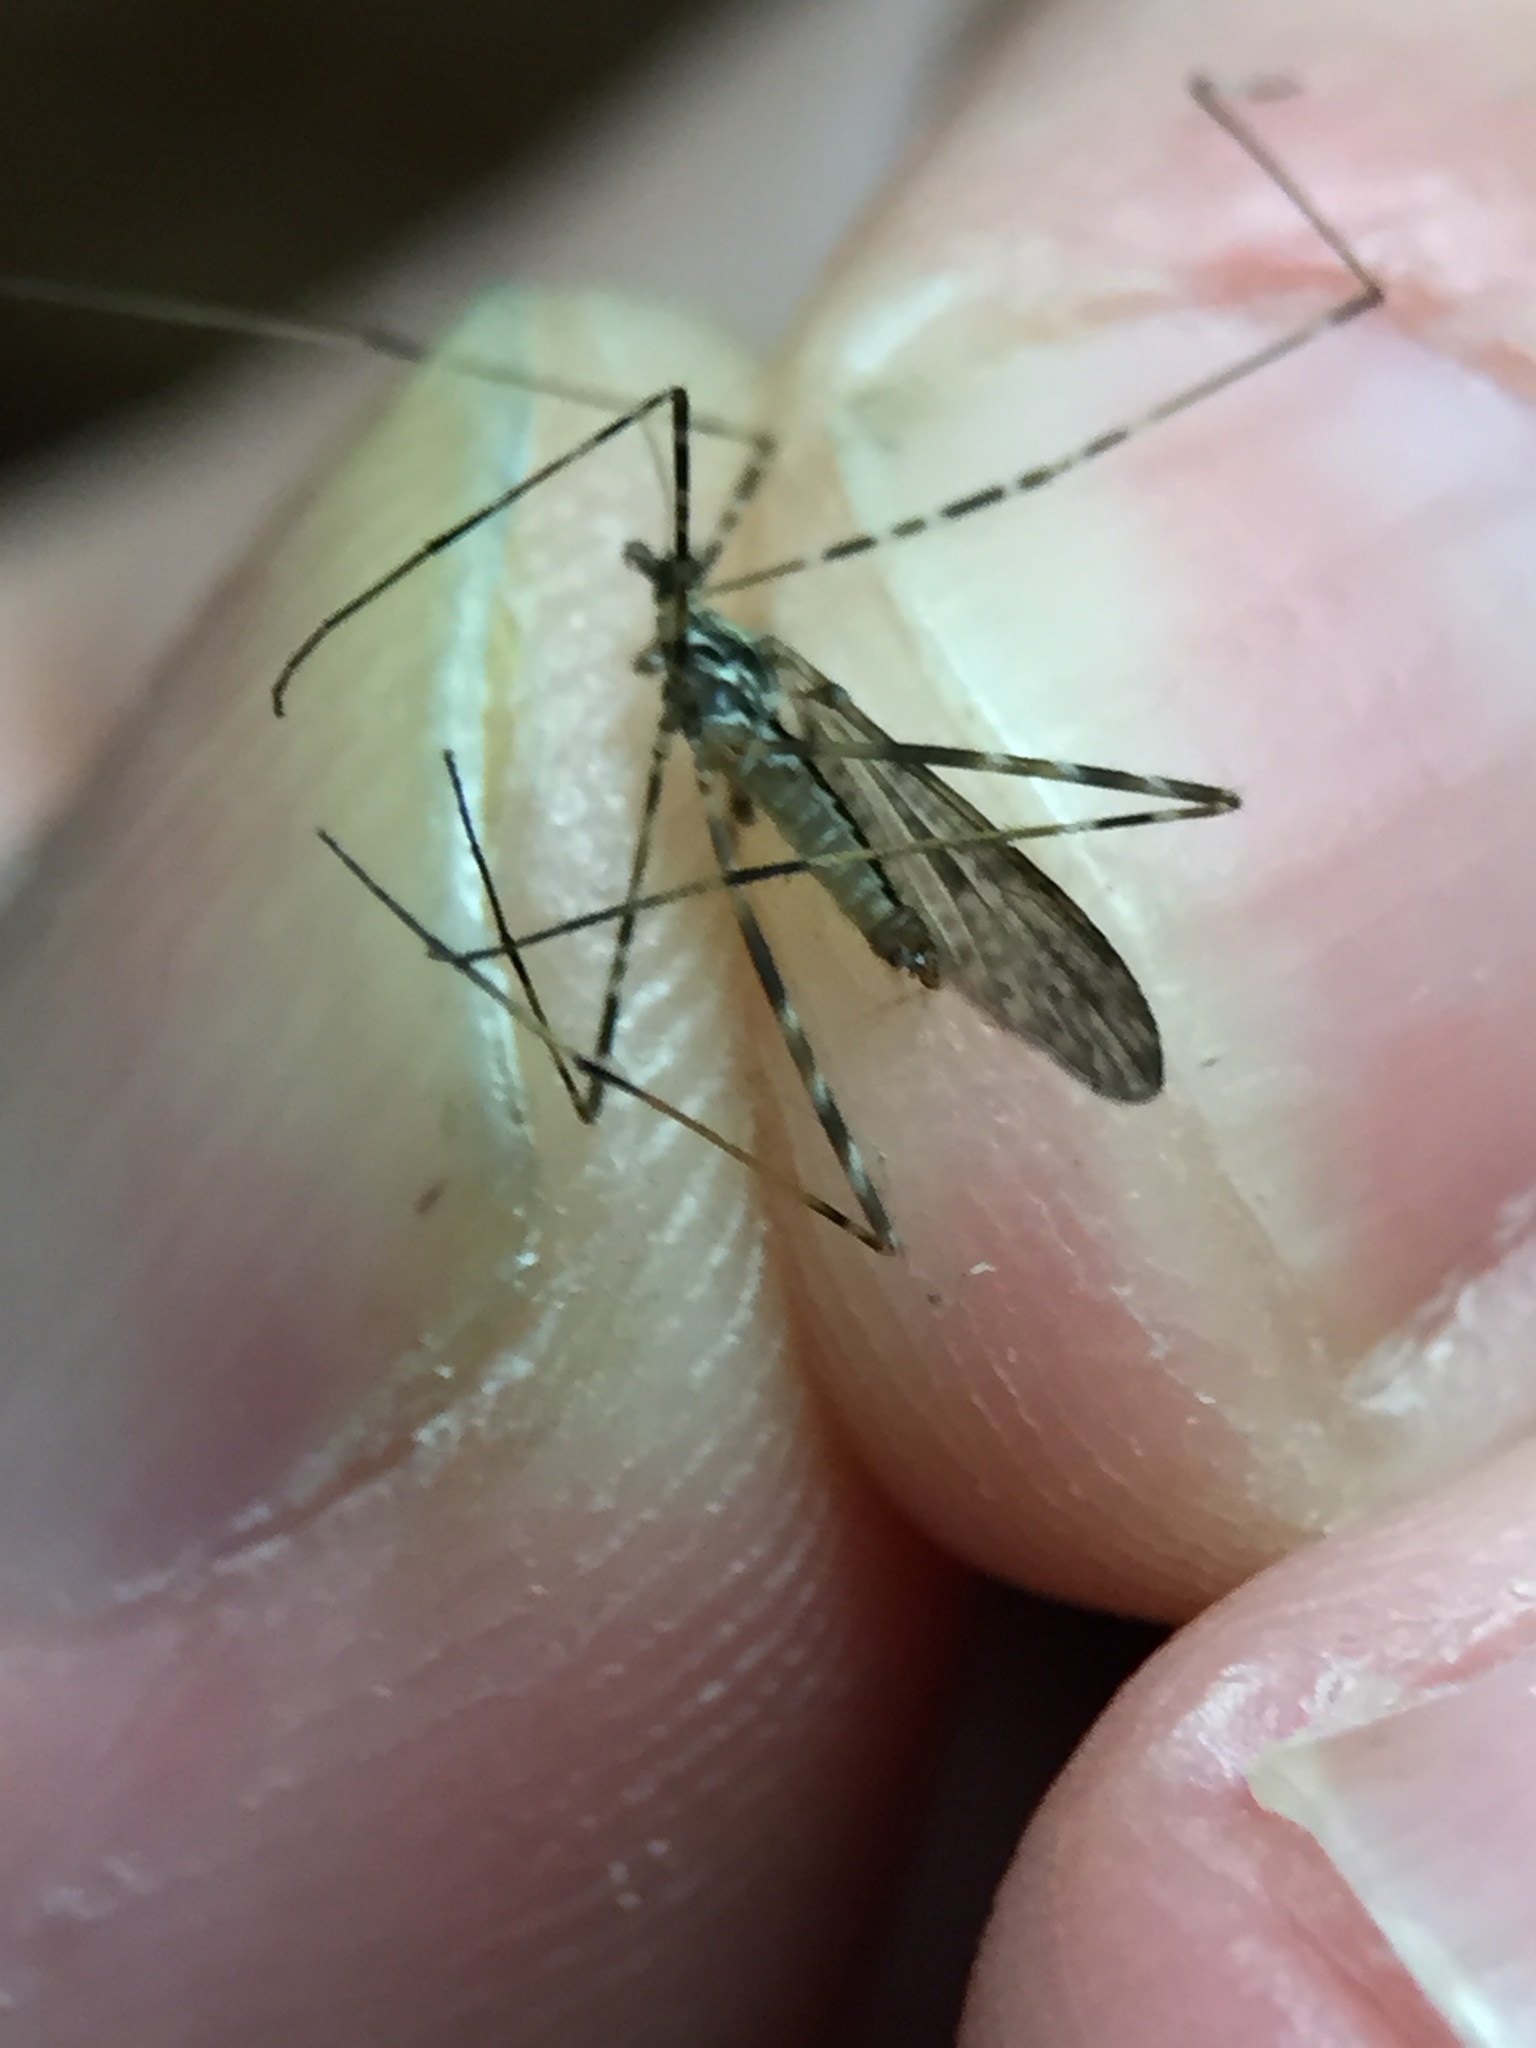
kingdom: Animalia
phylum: Arthropoda
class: Insecta
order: Diptera
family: Limoniidae
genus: Amphineurus
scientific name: Amphineurus hudsoni
